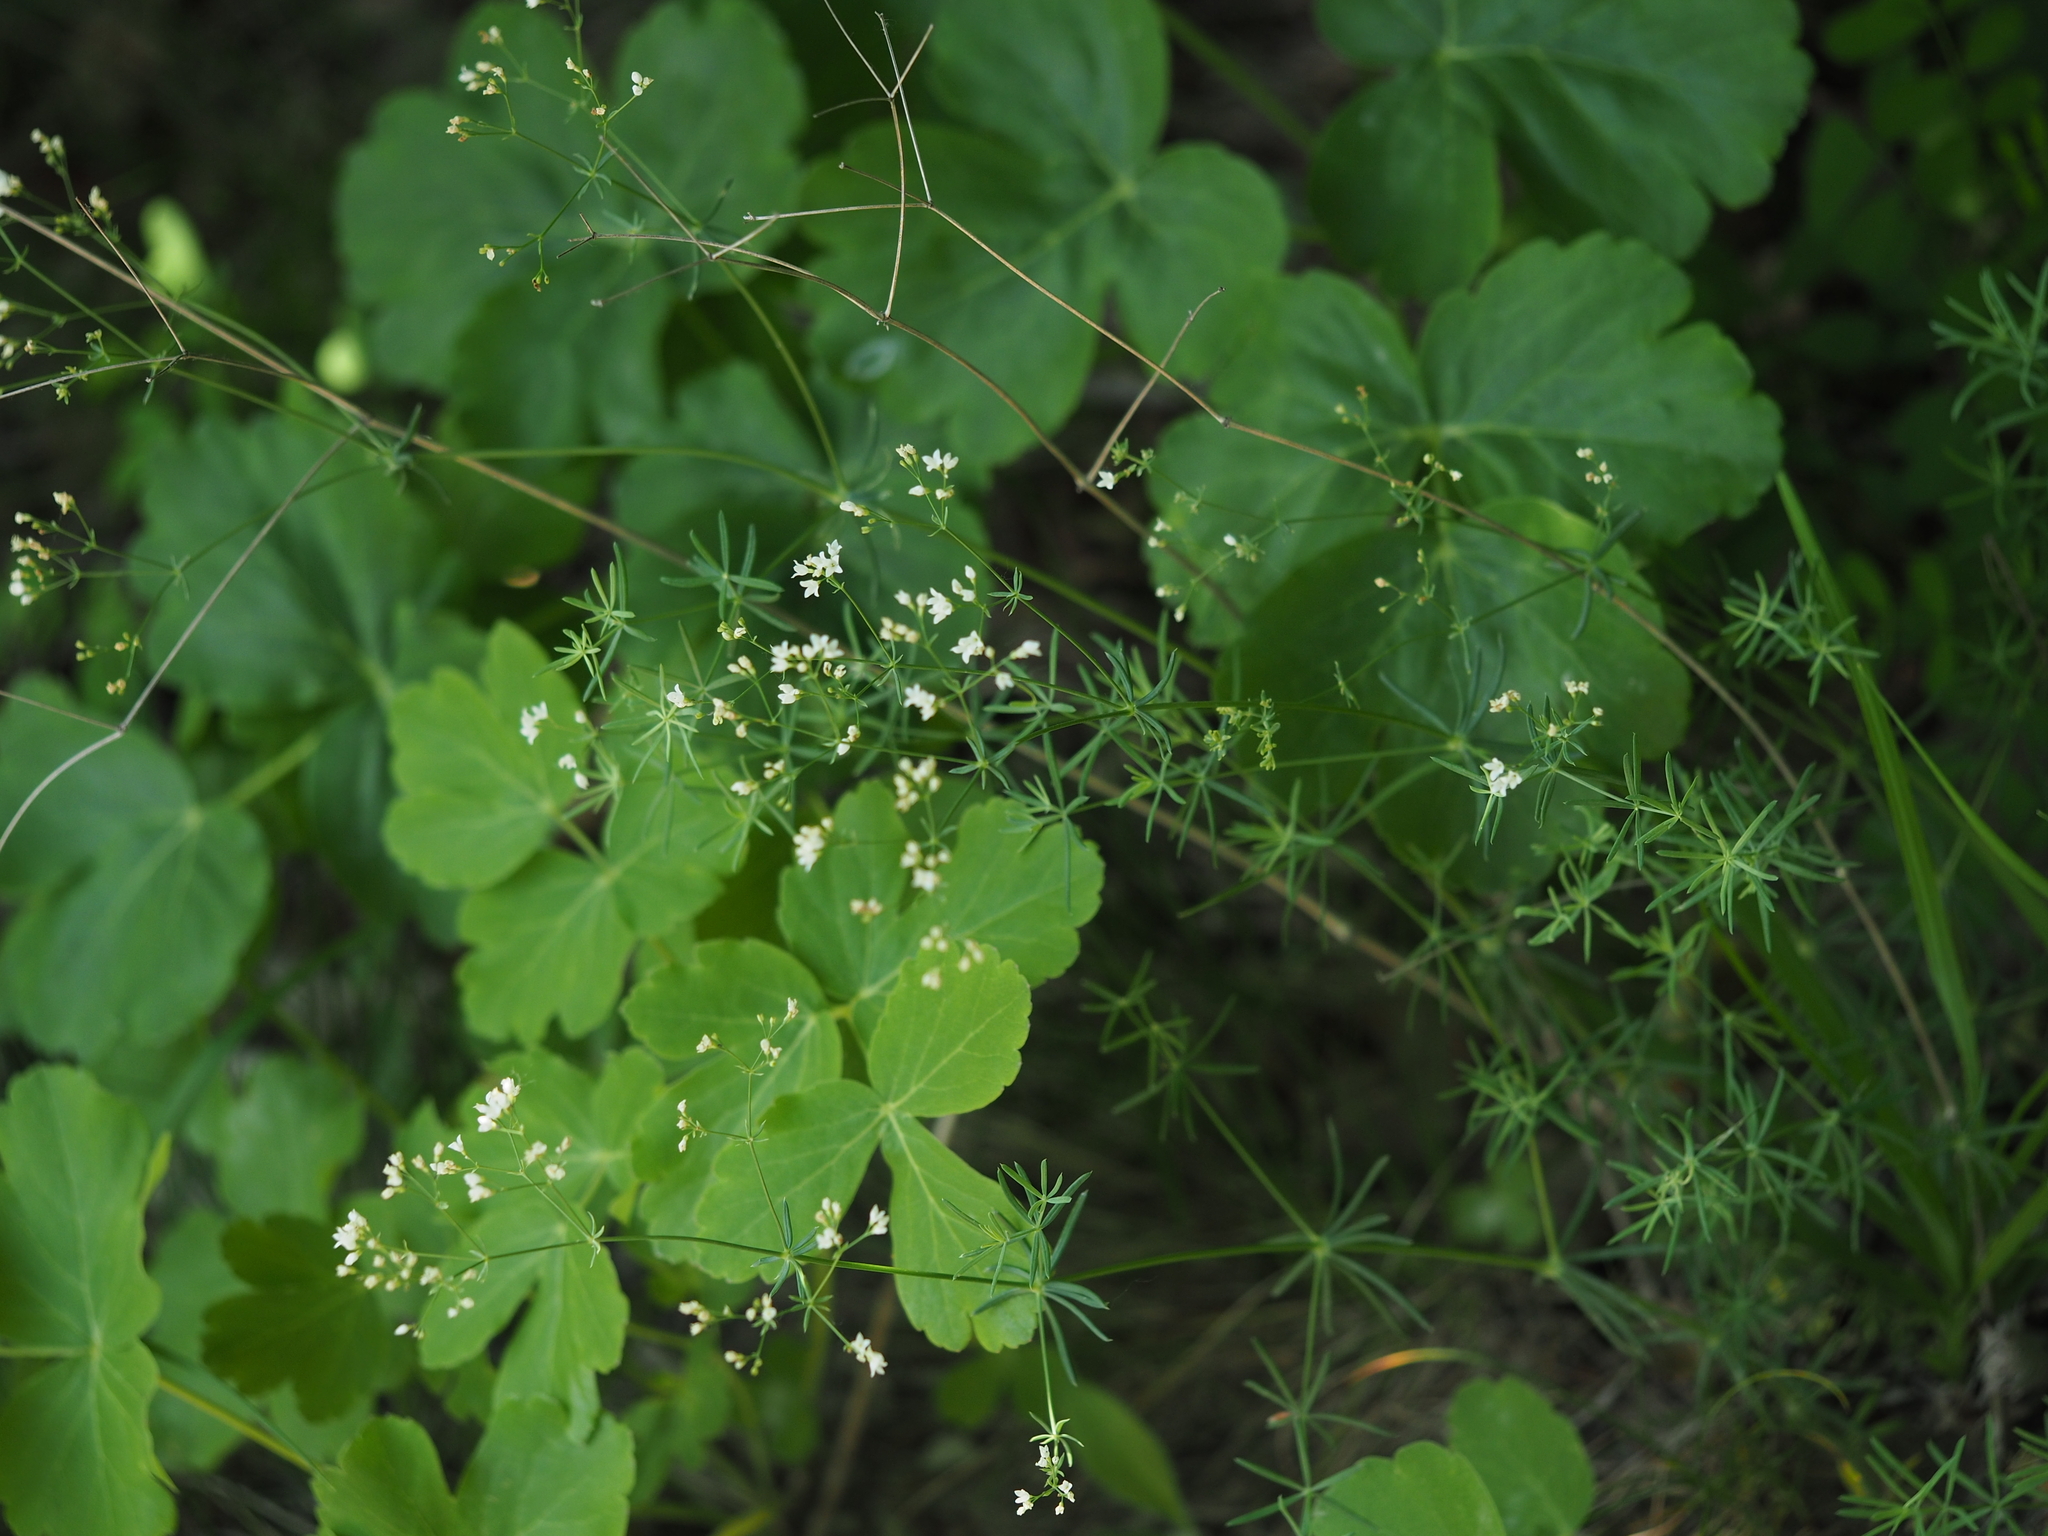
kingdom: Plantae
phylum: Tracheophyta
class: Magnoliopsida
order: Gentianales
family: Rubiaceae
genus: Galium
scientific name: Galium glaucum
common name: Waxy bedstraw
